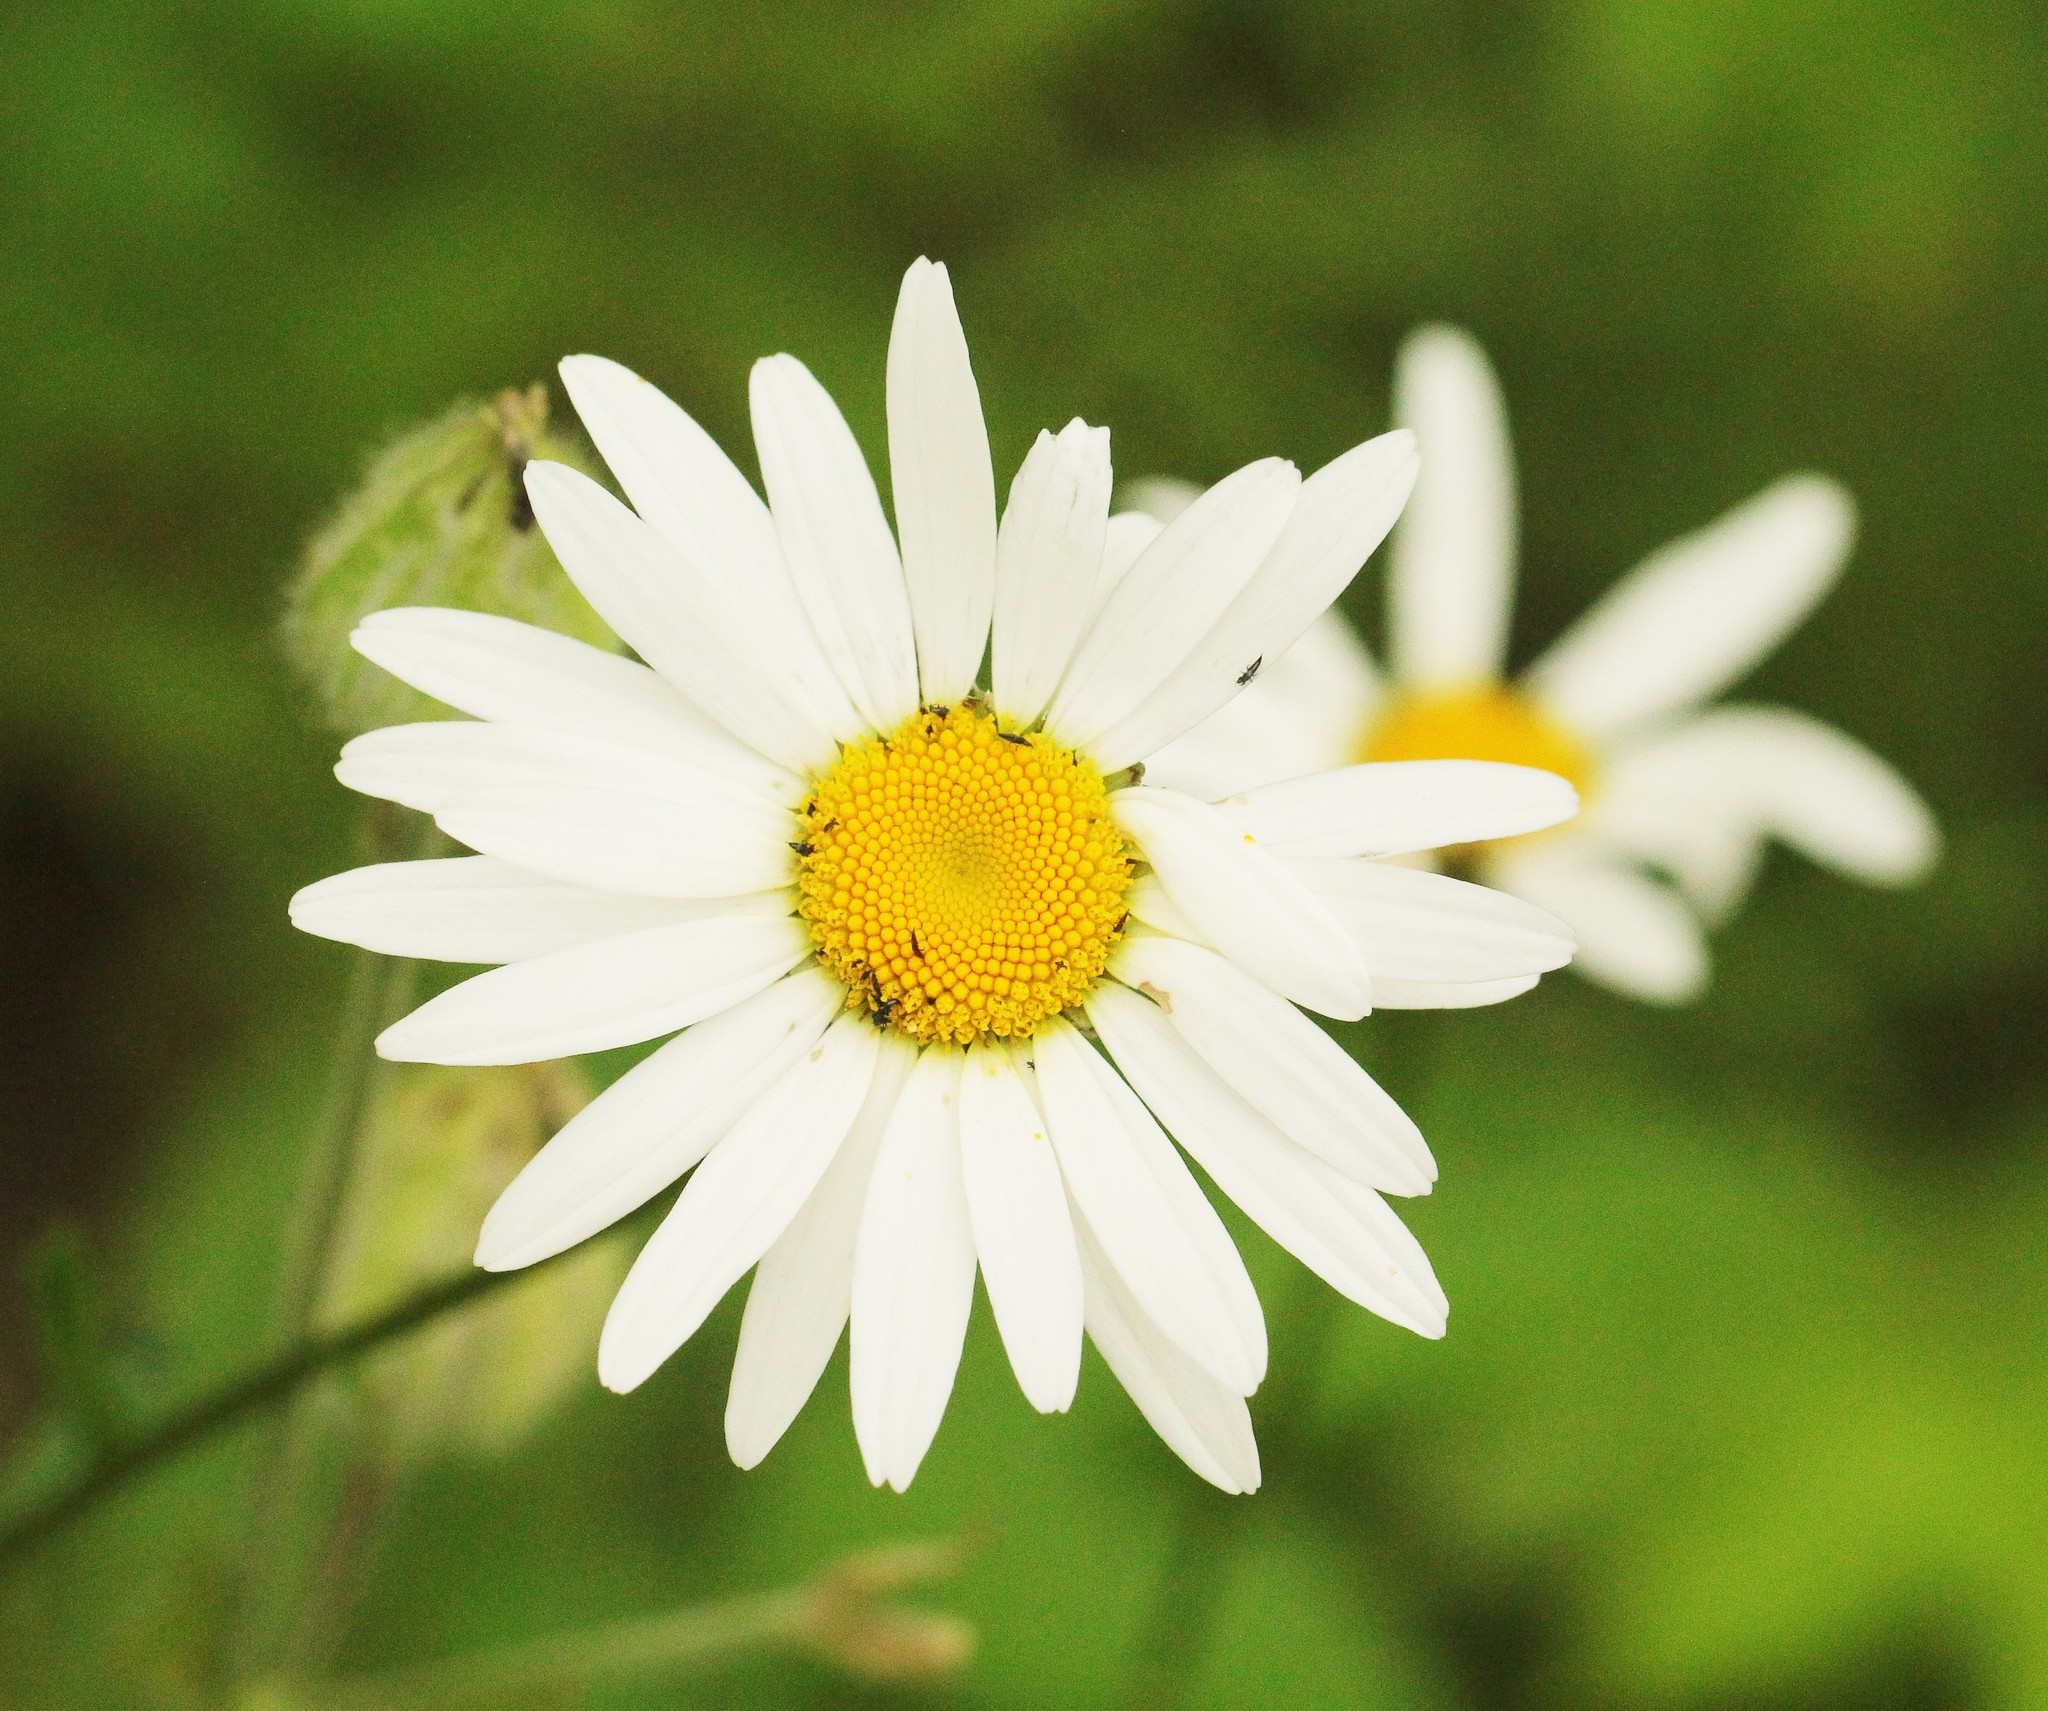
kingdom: Plantae
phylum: Tracheophyta
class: Magnoliopsida
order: Asterales
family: Asteraceae
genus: Leucanthemum
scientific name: Leucanthemum ircutianum
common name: Daisy
